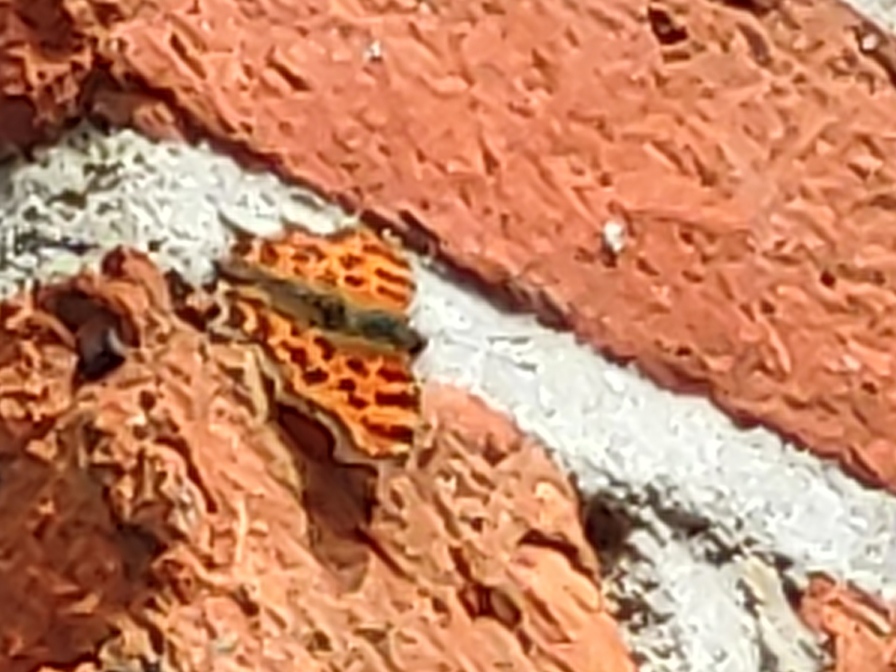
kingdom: Animalia
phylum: Arthropoda
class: Insecta
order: Lepidoptera
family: Nymphalidae
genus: Polygonia
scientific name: Polygonia c-album
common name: Comma
